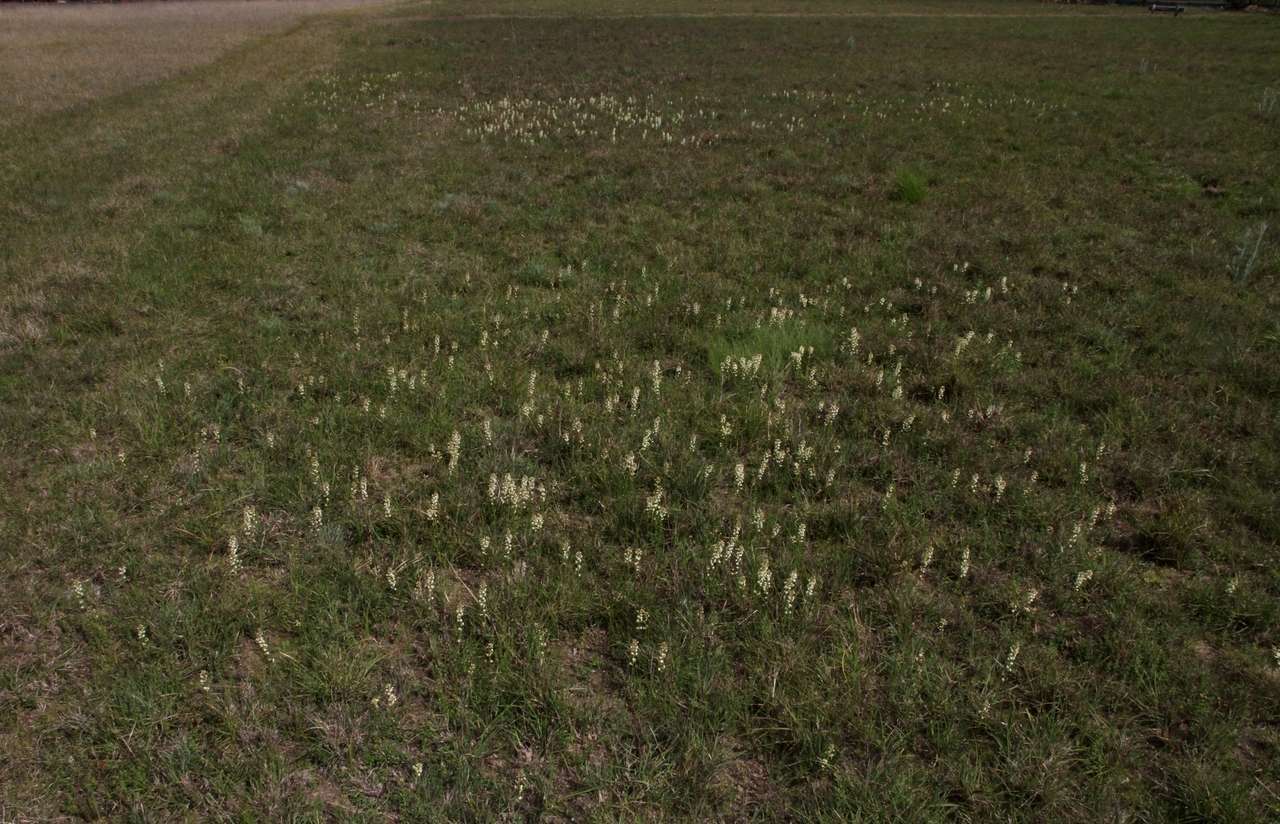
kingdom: Plantae
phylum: Tracheophyta
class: Magnoliopsida
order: Celastrales
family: Celastraceae
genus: Stackhousia
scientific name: Stackhousia subterranea
